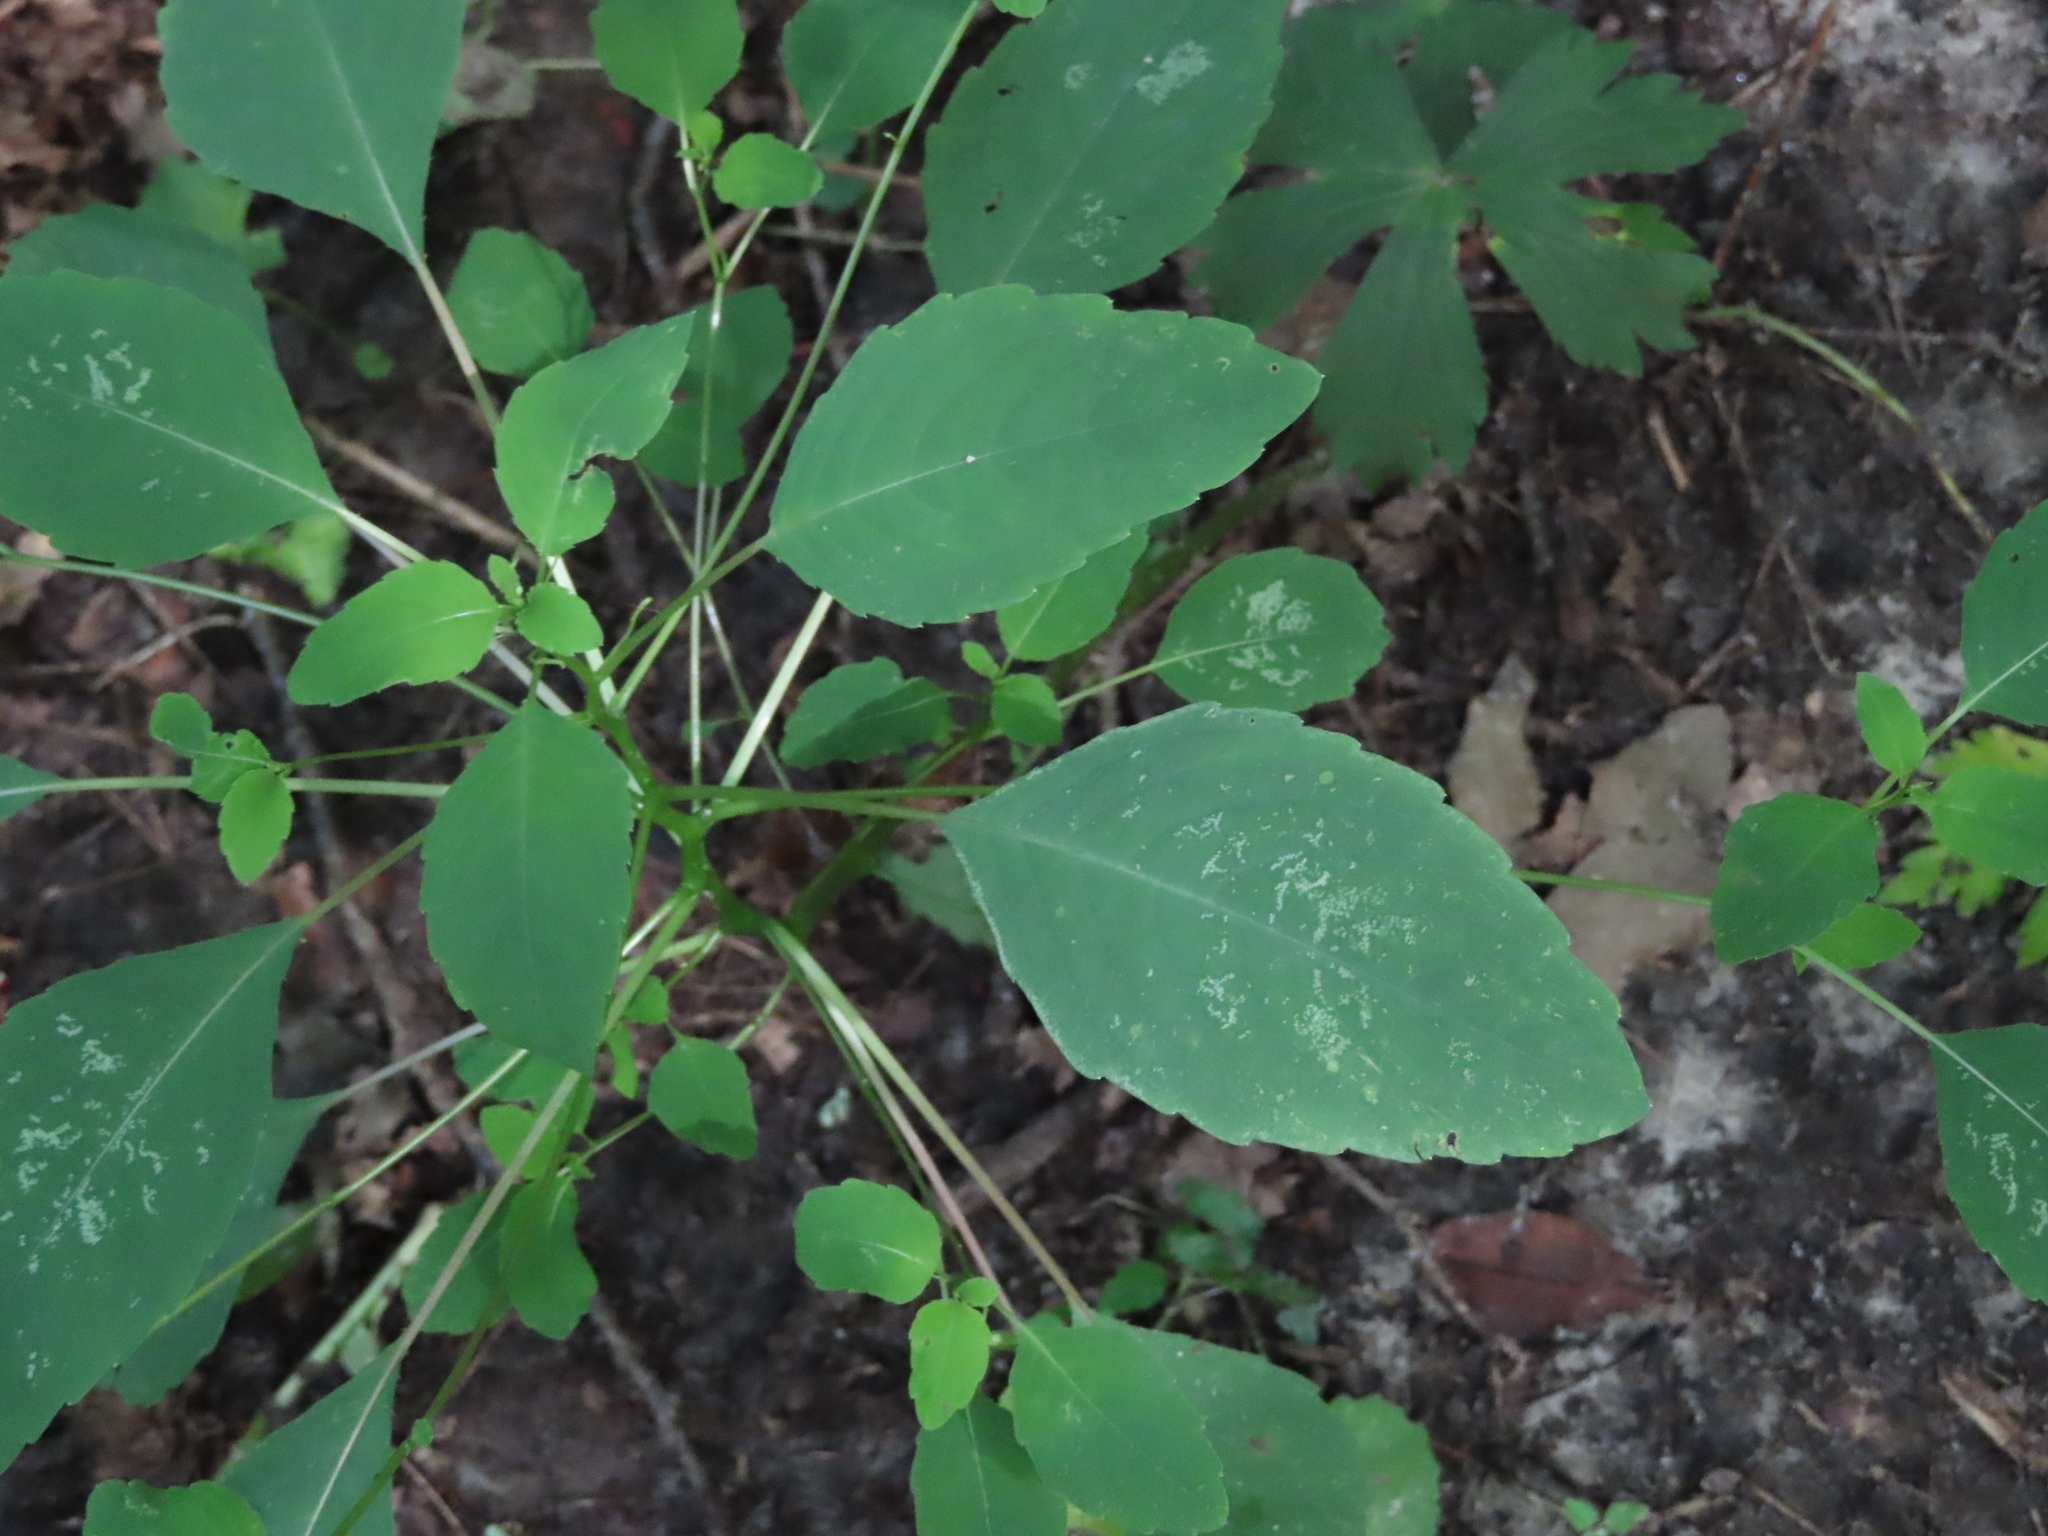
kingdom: Plantae
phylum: Tracheophyta
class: Magnoliopsida
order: Ericales
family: Balsaminaceae
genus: Impatiens
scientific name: Impatiens capensis
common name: Orange balsam
